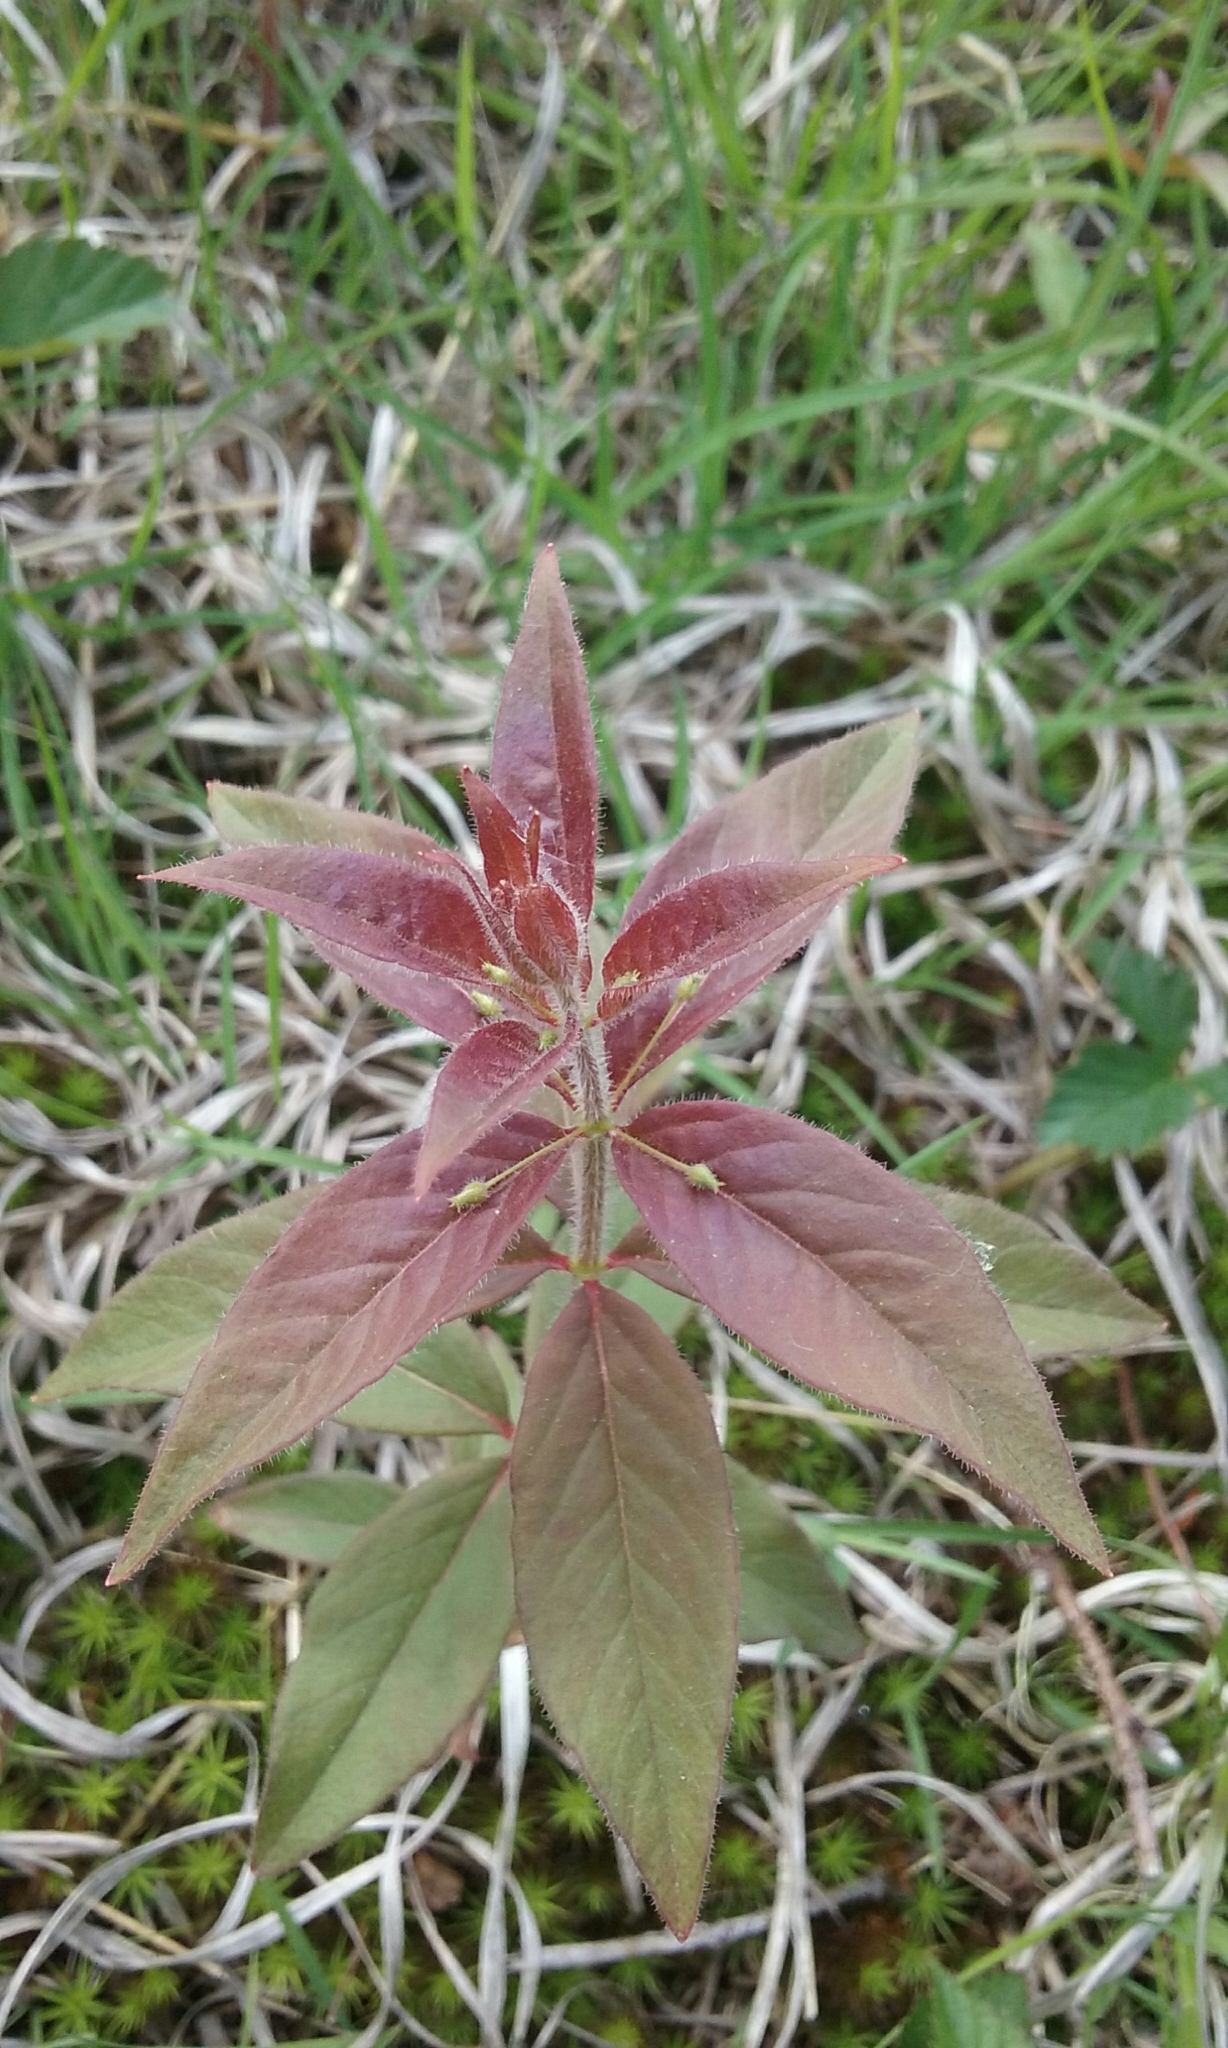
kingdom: Plantae
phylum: Tracheophyta
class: Magnoliopsida
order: Ericales
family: Primulaceae
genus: Lysimachia
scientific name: Lysimachia quadrifolia
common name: Whorled loosestrife
